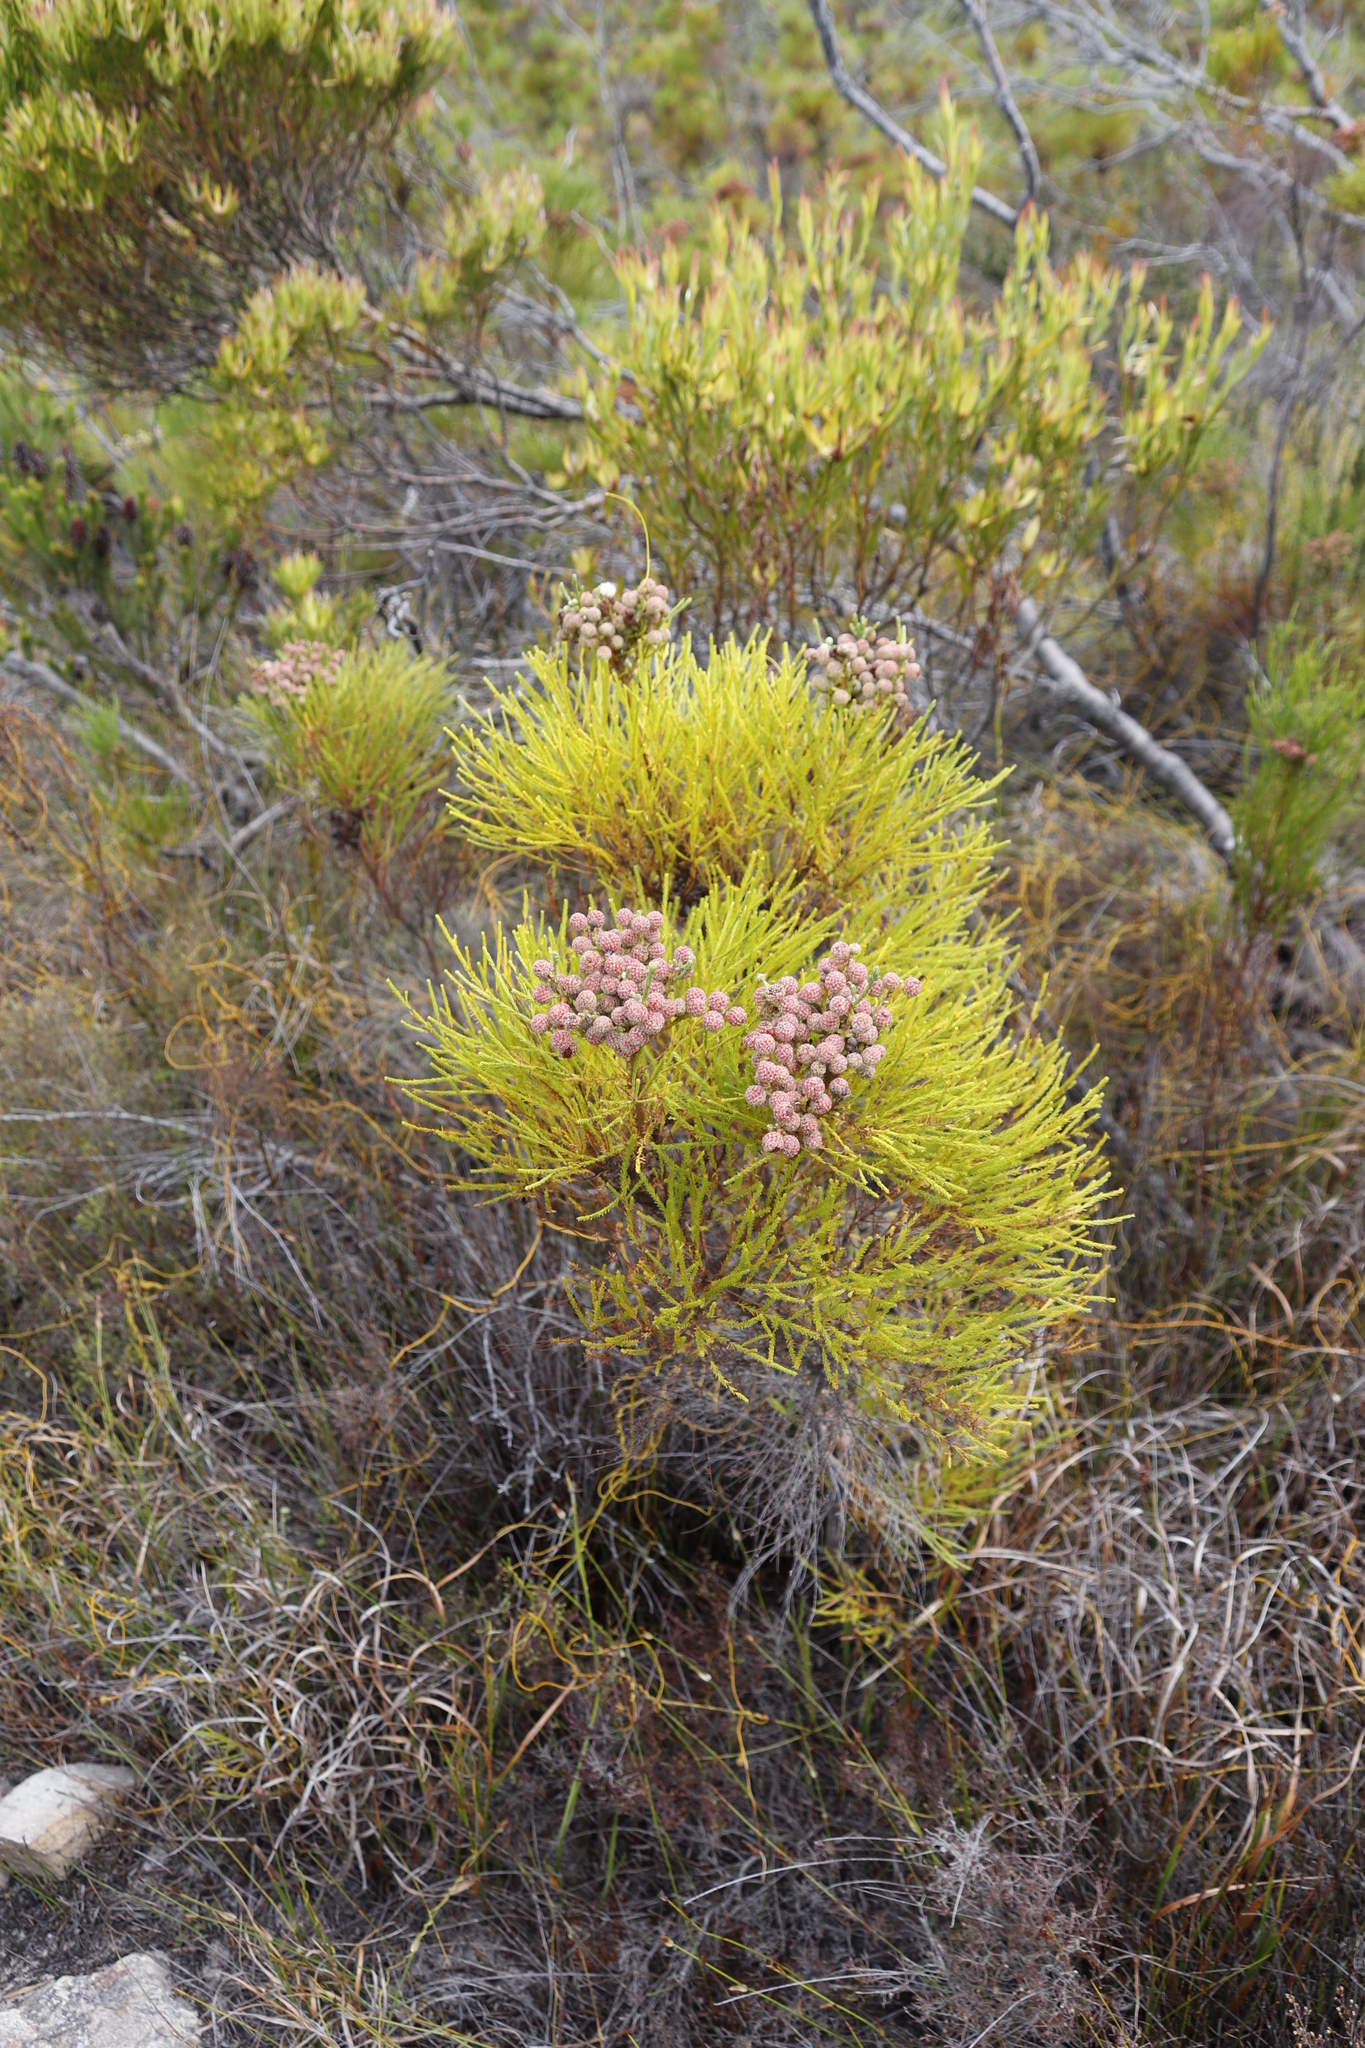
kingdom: Plantae
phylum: Tracheophyta
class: Magnoliopsida
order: Bruniales
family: Bruniaceae
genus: Berzelia
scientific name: Berzelia lanuginosa
